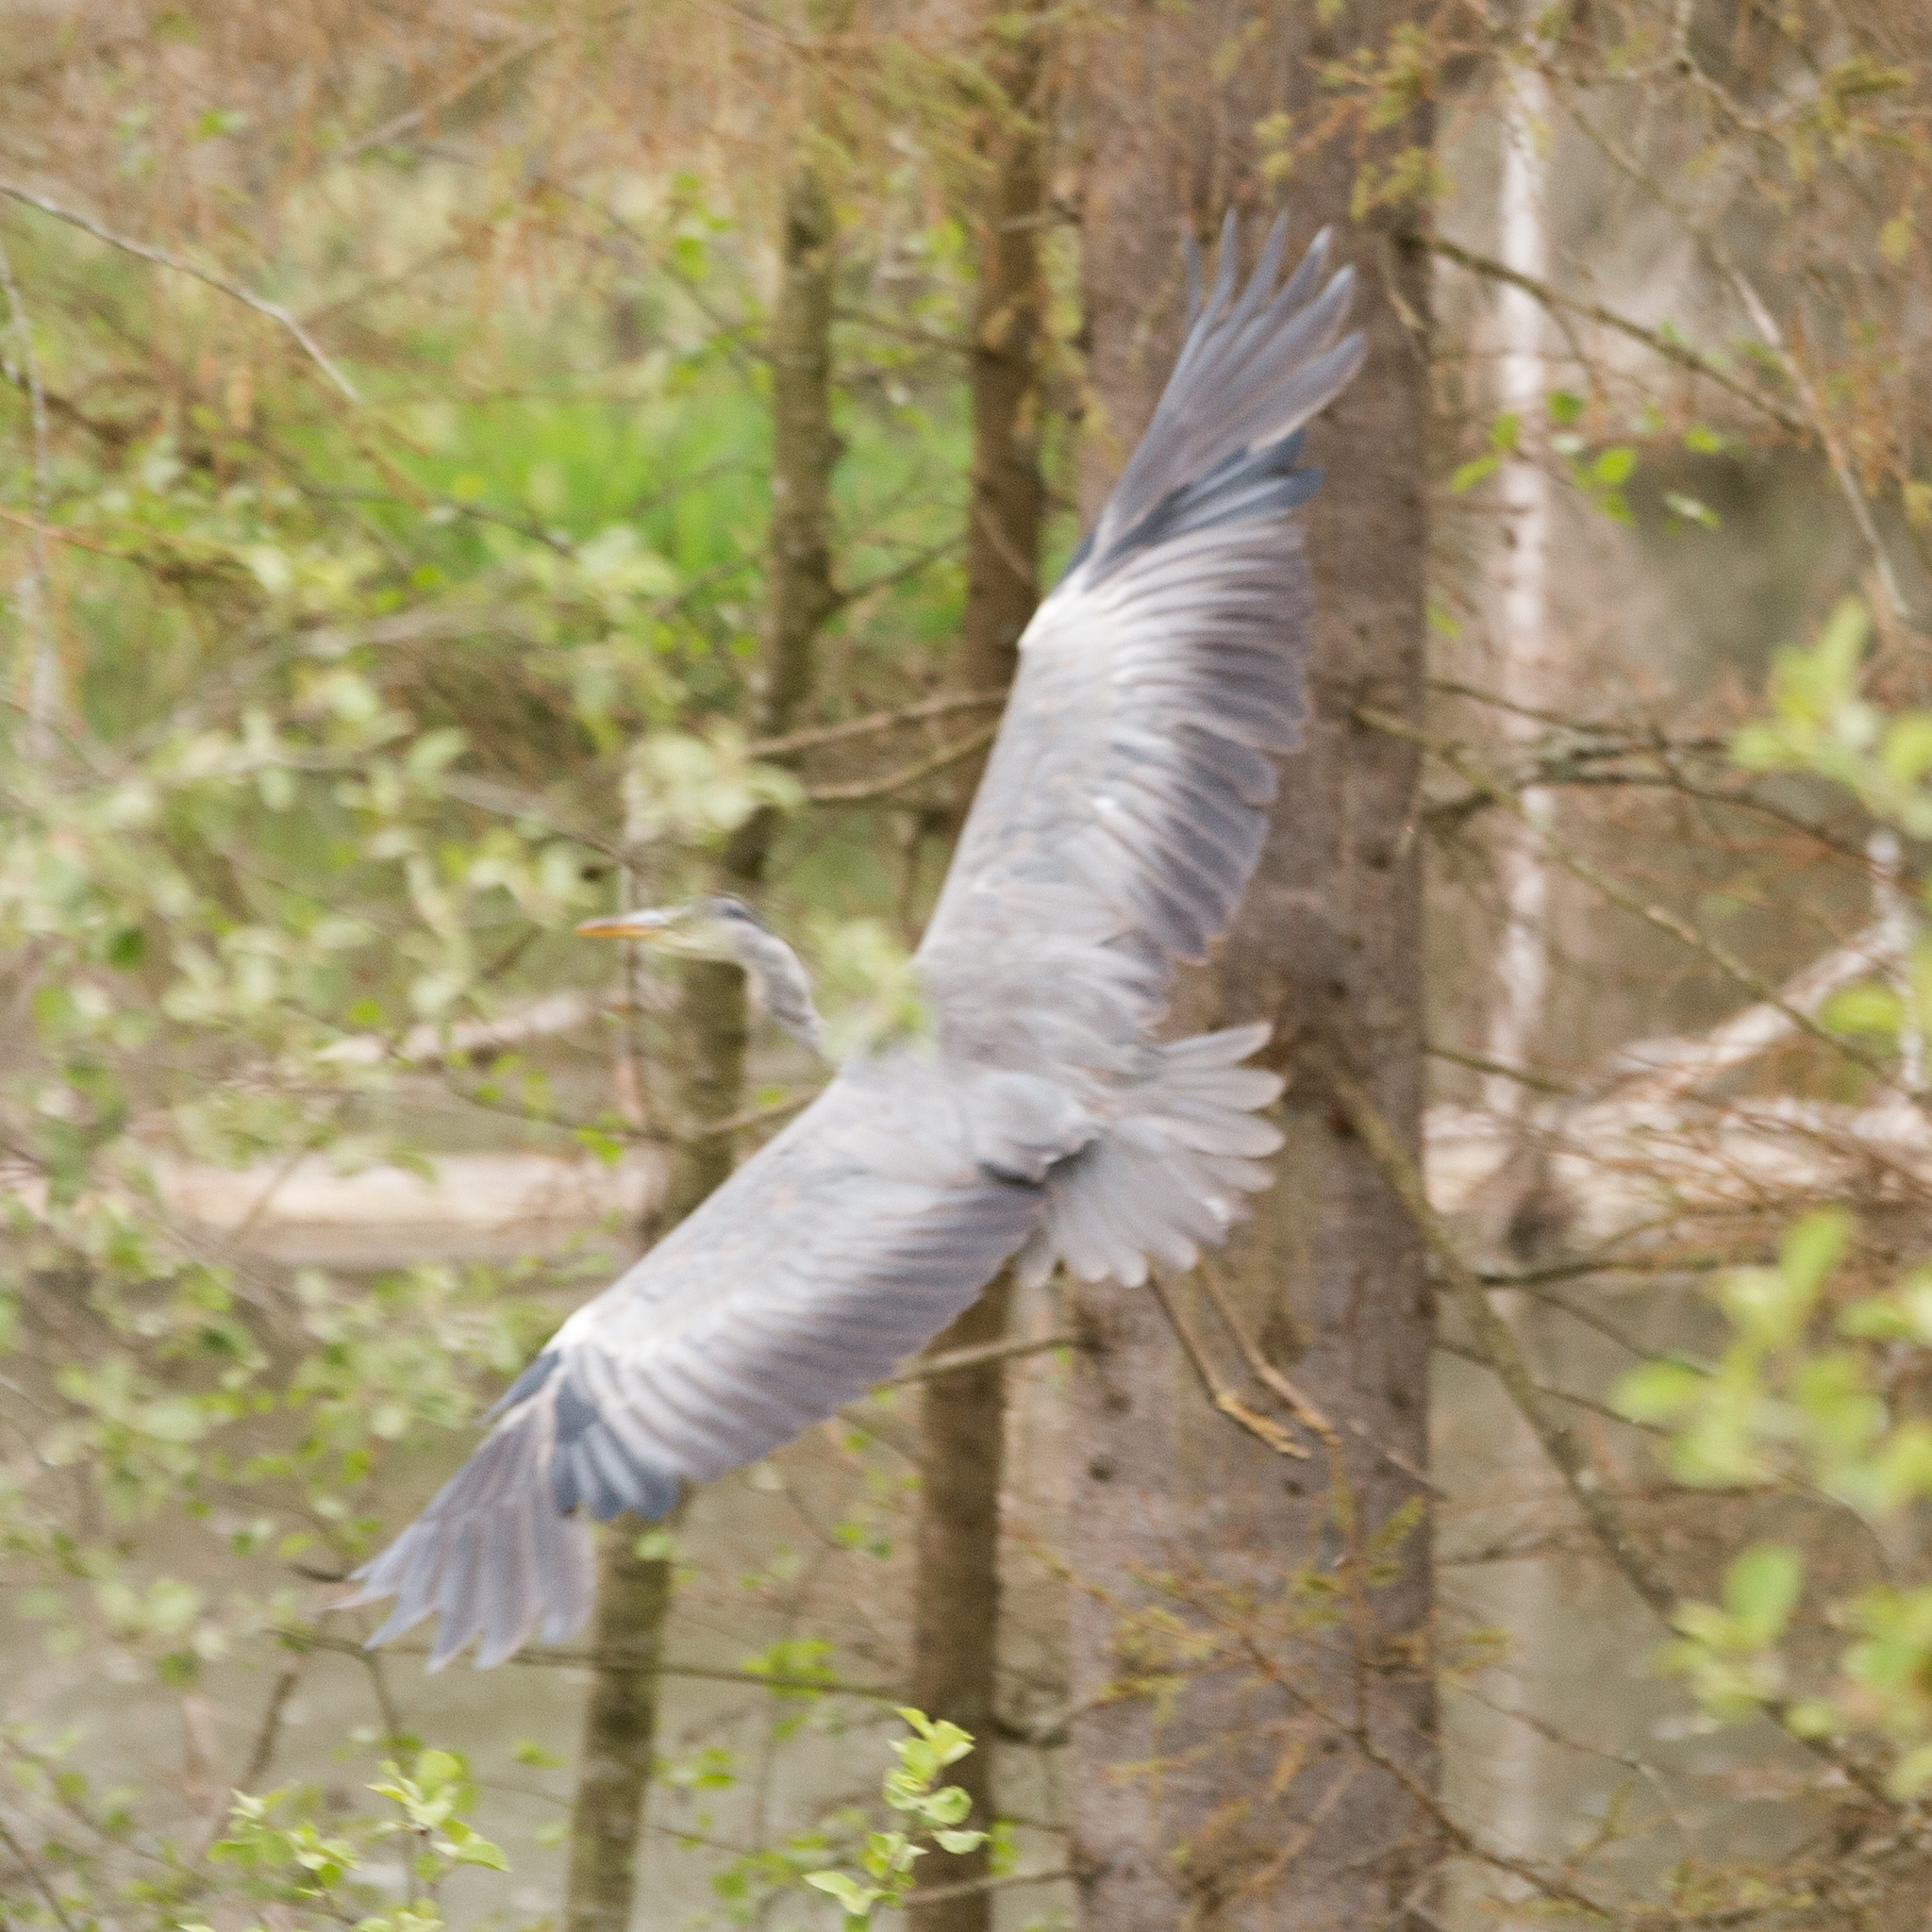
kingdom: Animalia
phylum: Chordata
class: Aves
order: Pelecaniformes
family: Ardeidae
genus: Ardea
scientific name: Ardea cinerea
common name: Grey heron
